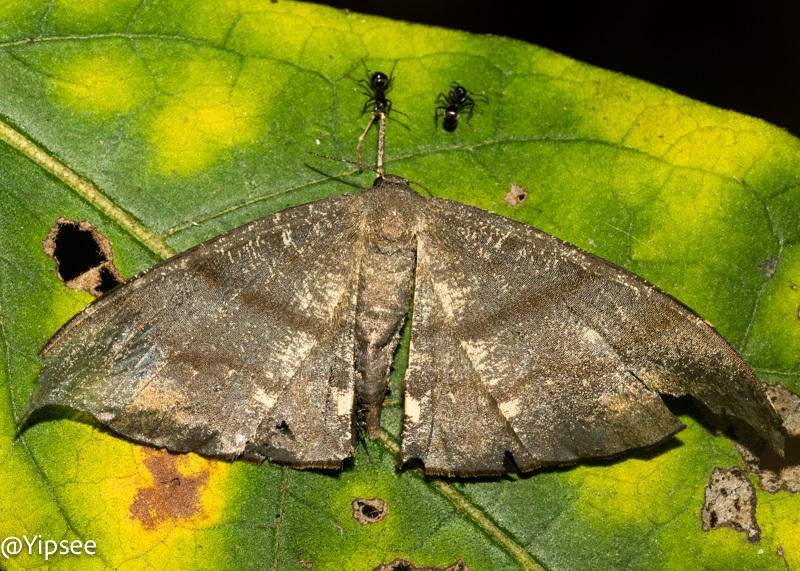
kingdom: Animalia
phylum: Arthropoda
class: Insecta
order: Lepidoptera
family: Geometridae
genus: Hyposidra
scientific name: Hyposidra aquilaria
